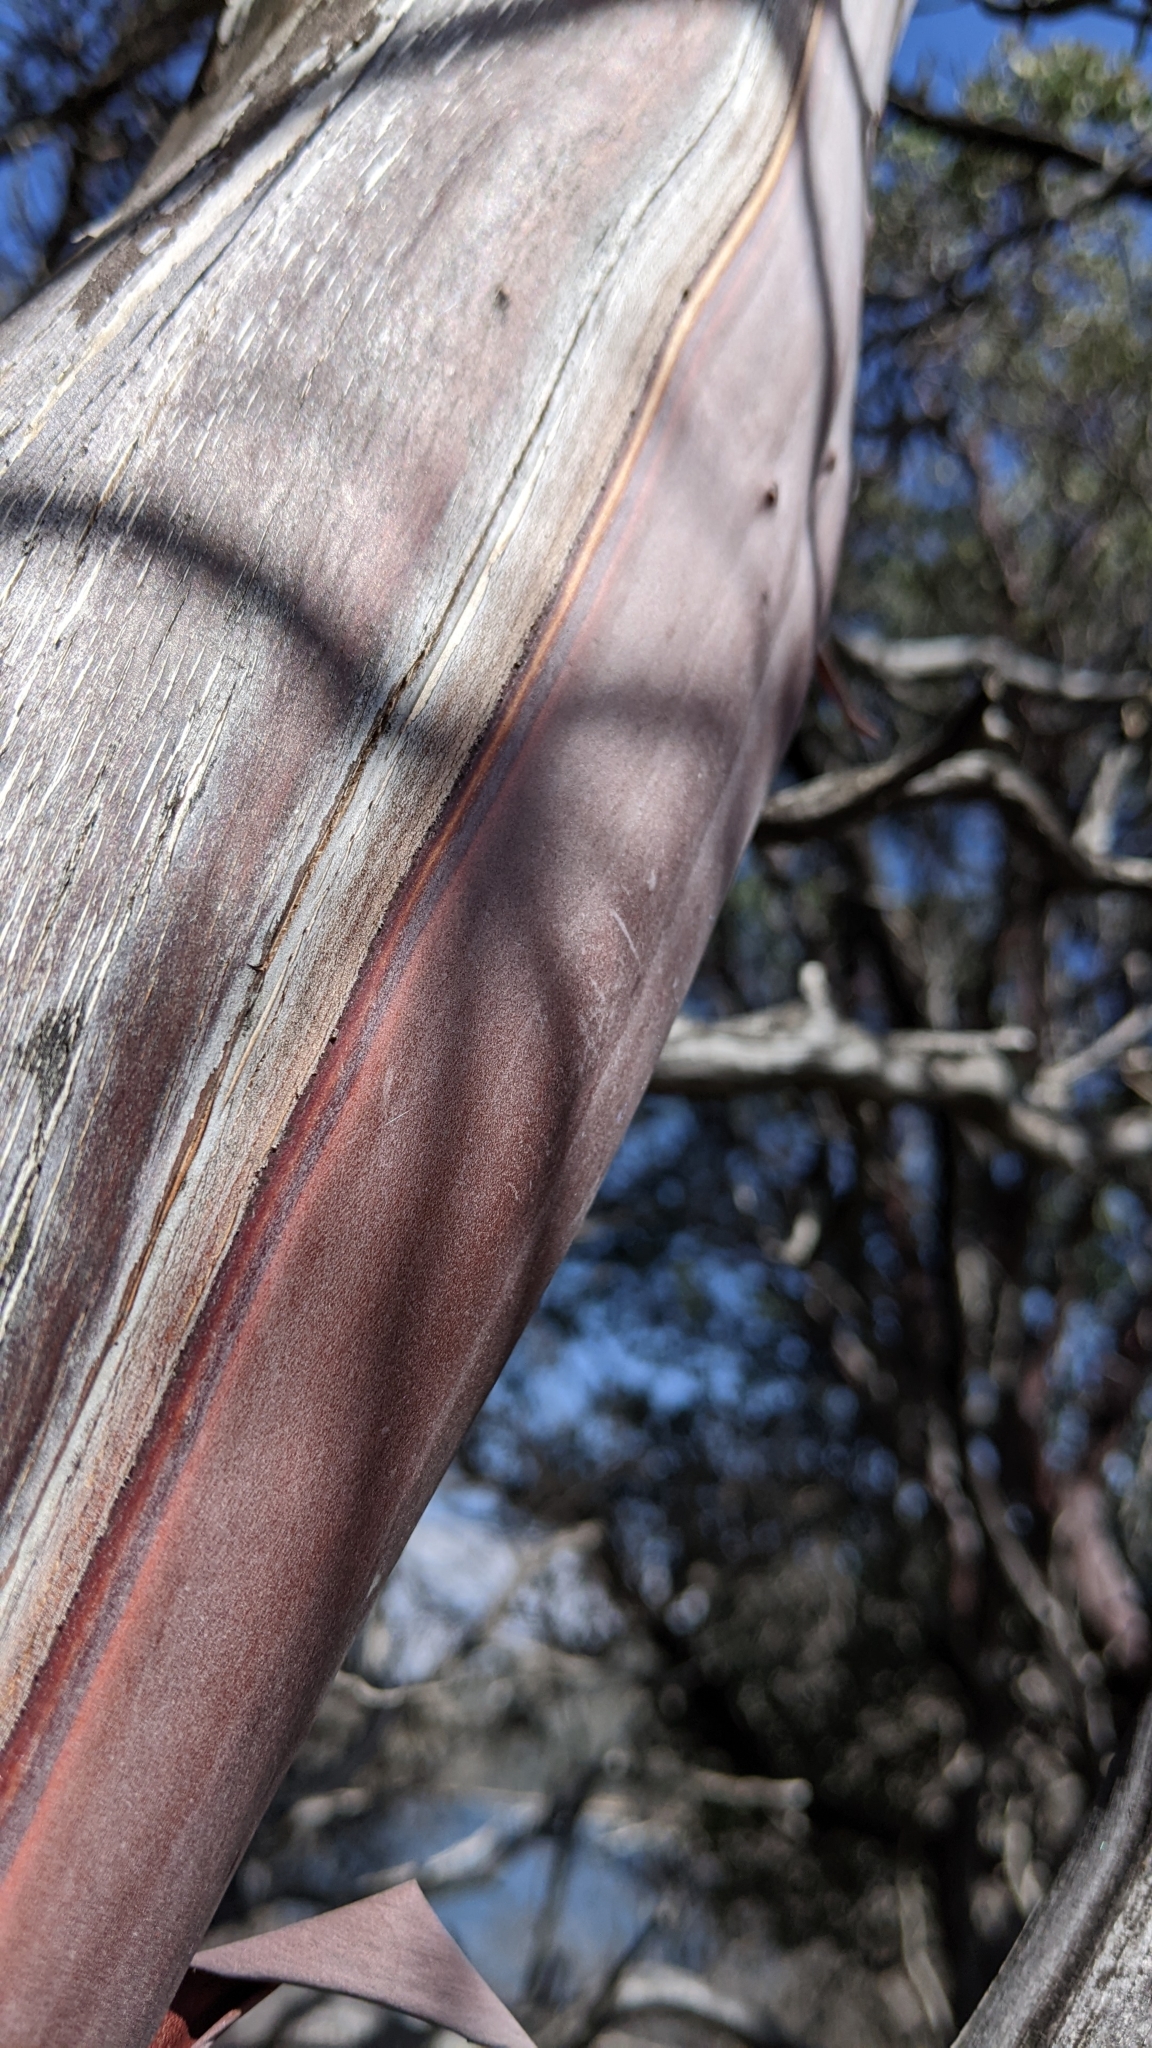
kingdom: Plantae
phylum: Tracheophyta
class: Magnoliopsida
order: Ericales
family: Ericaceae
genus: Arctostaphylos
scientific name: Arctostaphylos glauca
